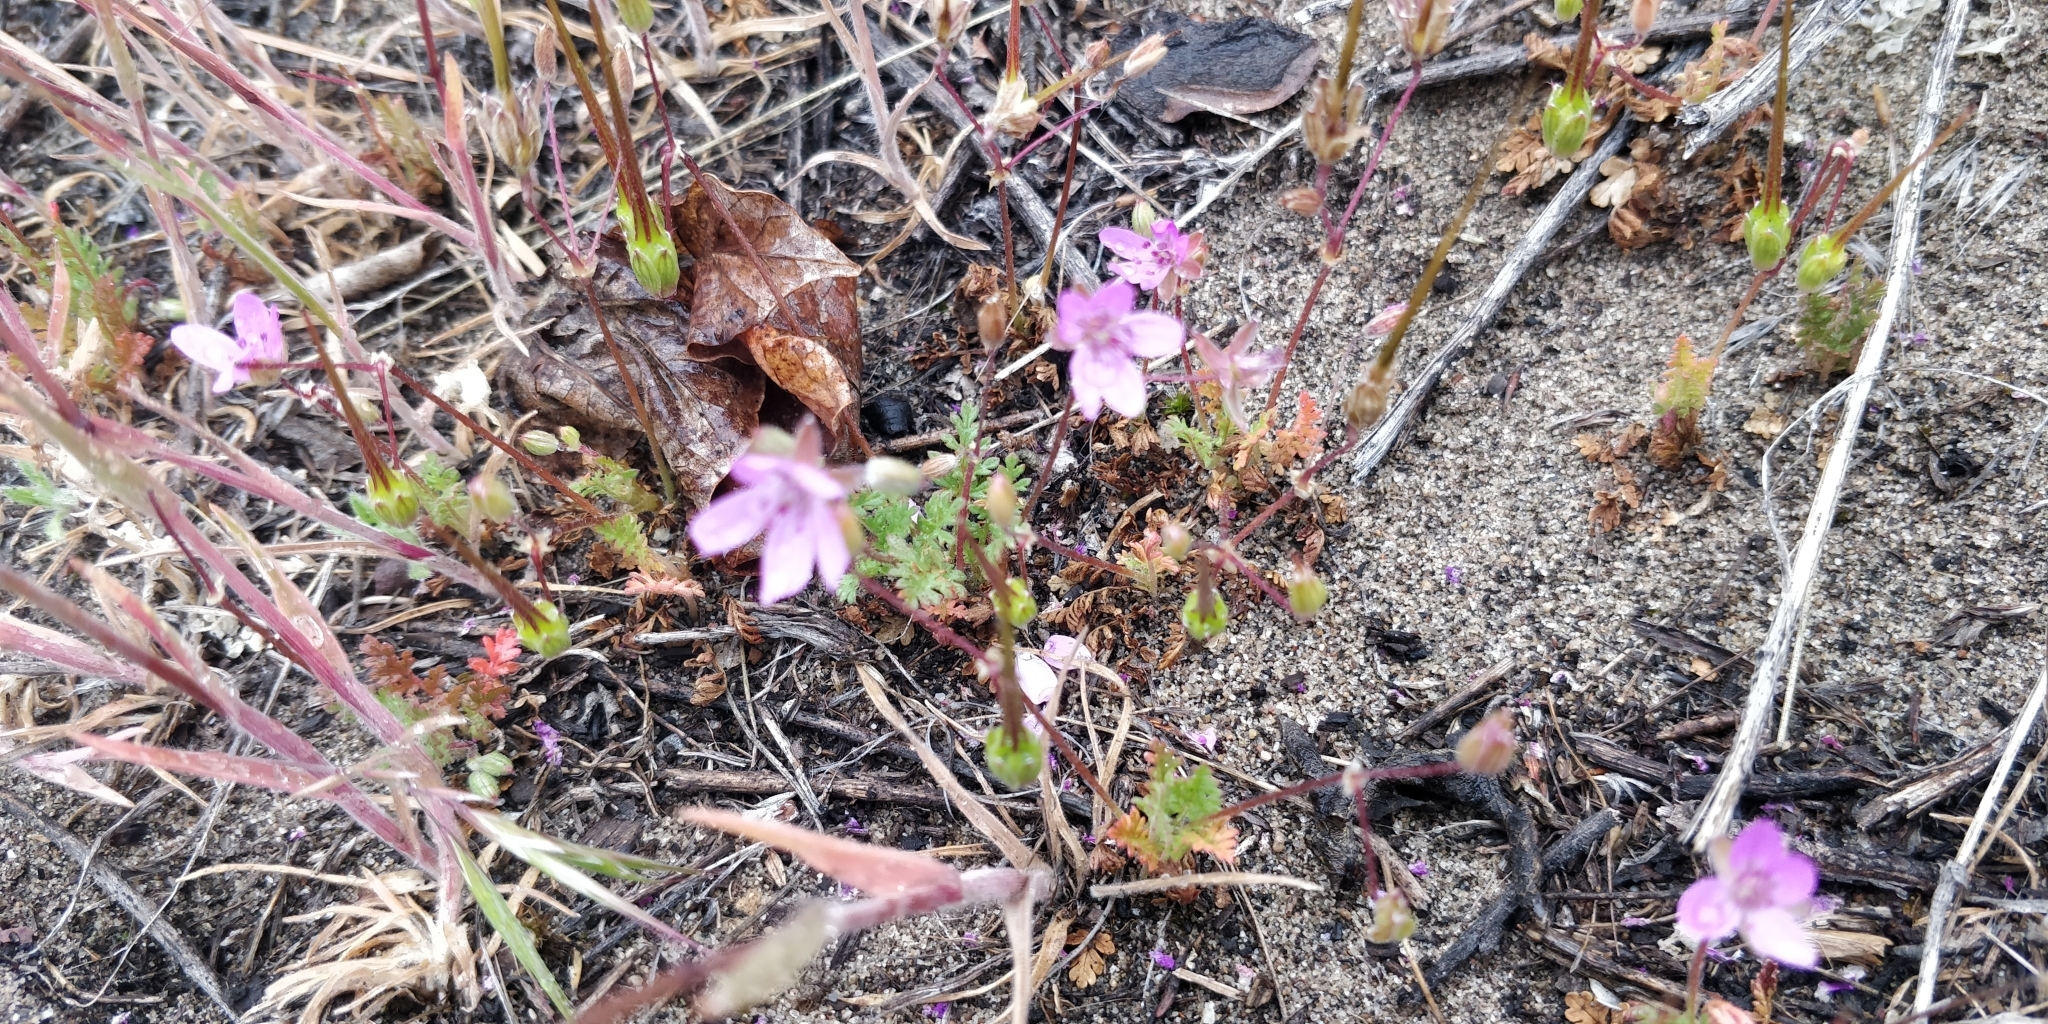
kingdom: Plantae
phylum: Tracheophyta
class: Magnoliopsida
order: Geraniales
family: Geraniaceae
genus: Erodium
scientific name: Erodium cicutarium
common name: Common stork's-bill
